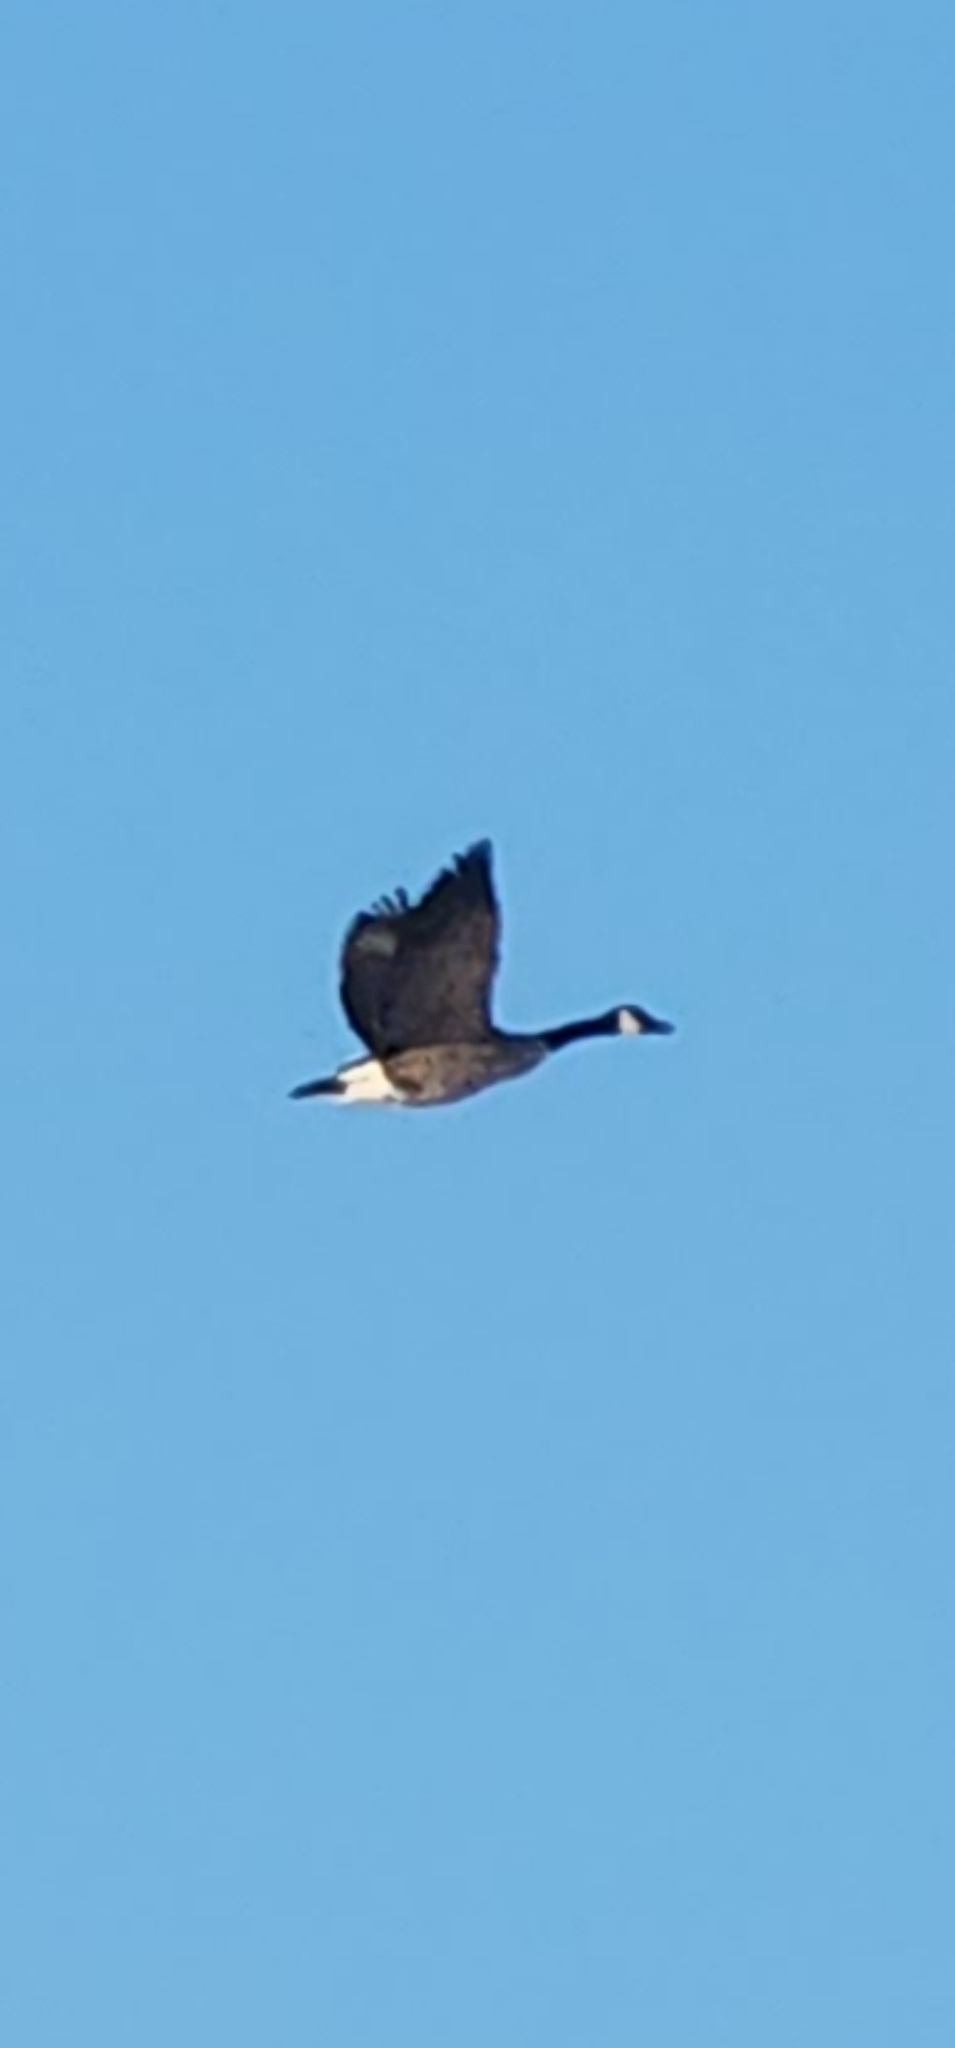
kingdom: Animalia
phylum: Chordata
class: Aves
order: Anseriformes
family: Anatidae
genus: Branta
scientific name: Branta canadensis
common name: Canada goose
